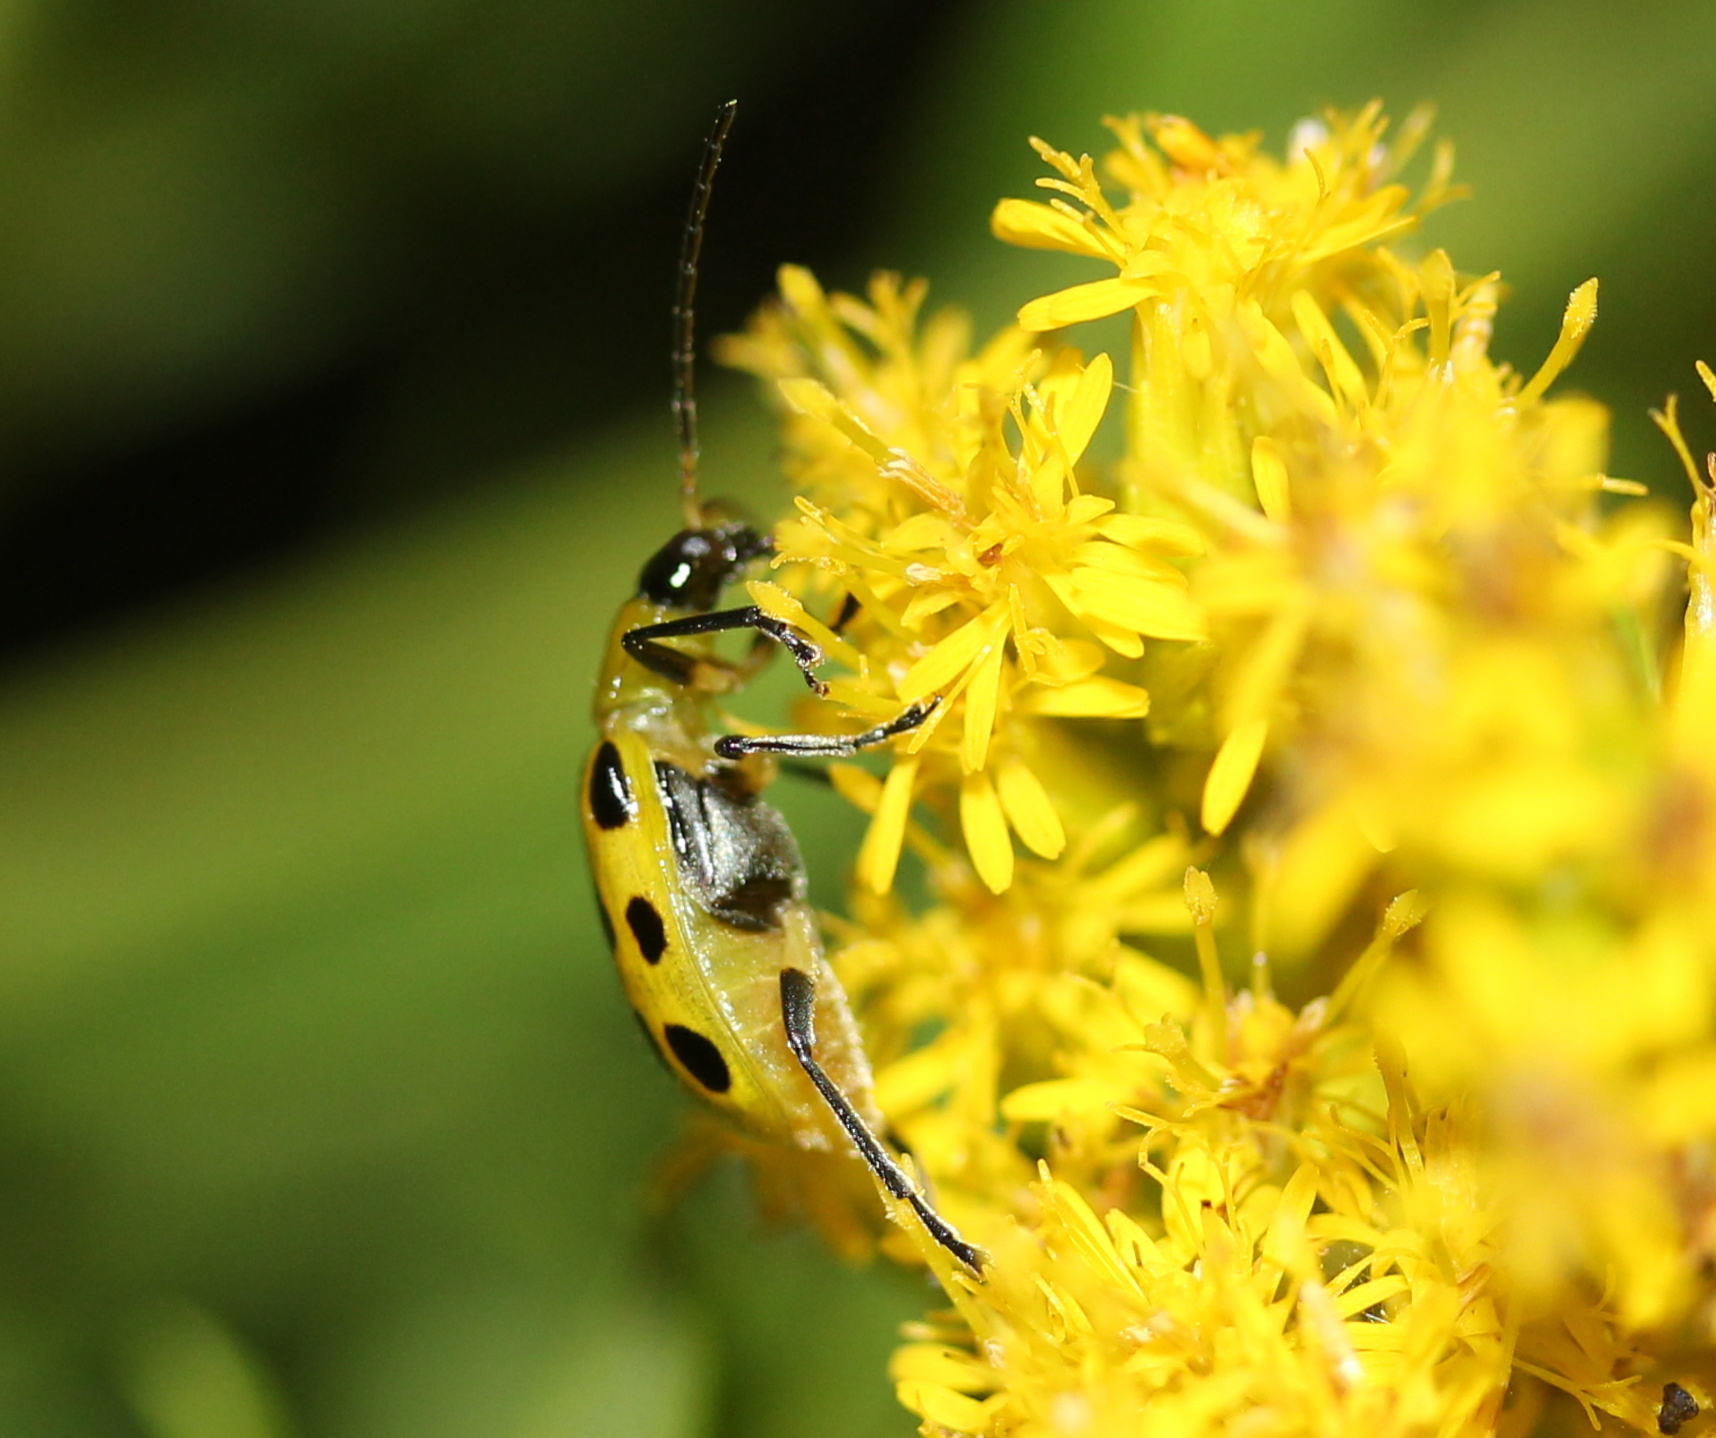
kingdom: Animalia
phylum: Arthropoda
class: Insecta
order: Coleoptera
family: Chrysomelidae
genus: Diabrotica
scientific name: Diabrotica undecimpunctata
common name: Spotted cucumber beetle
